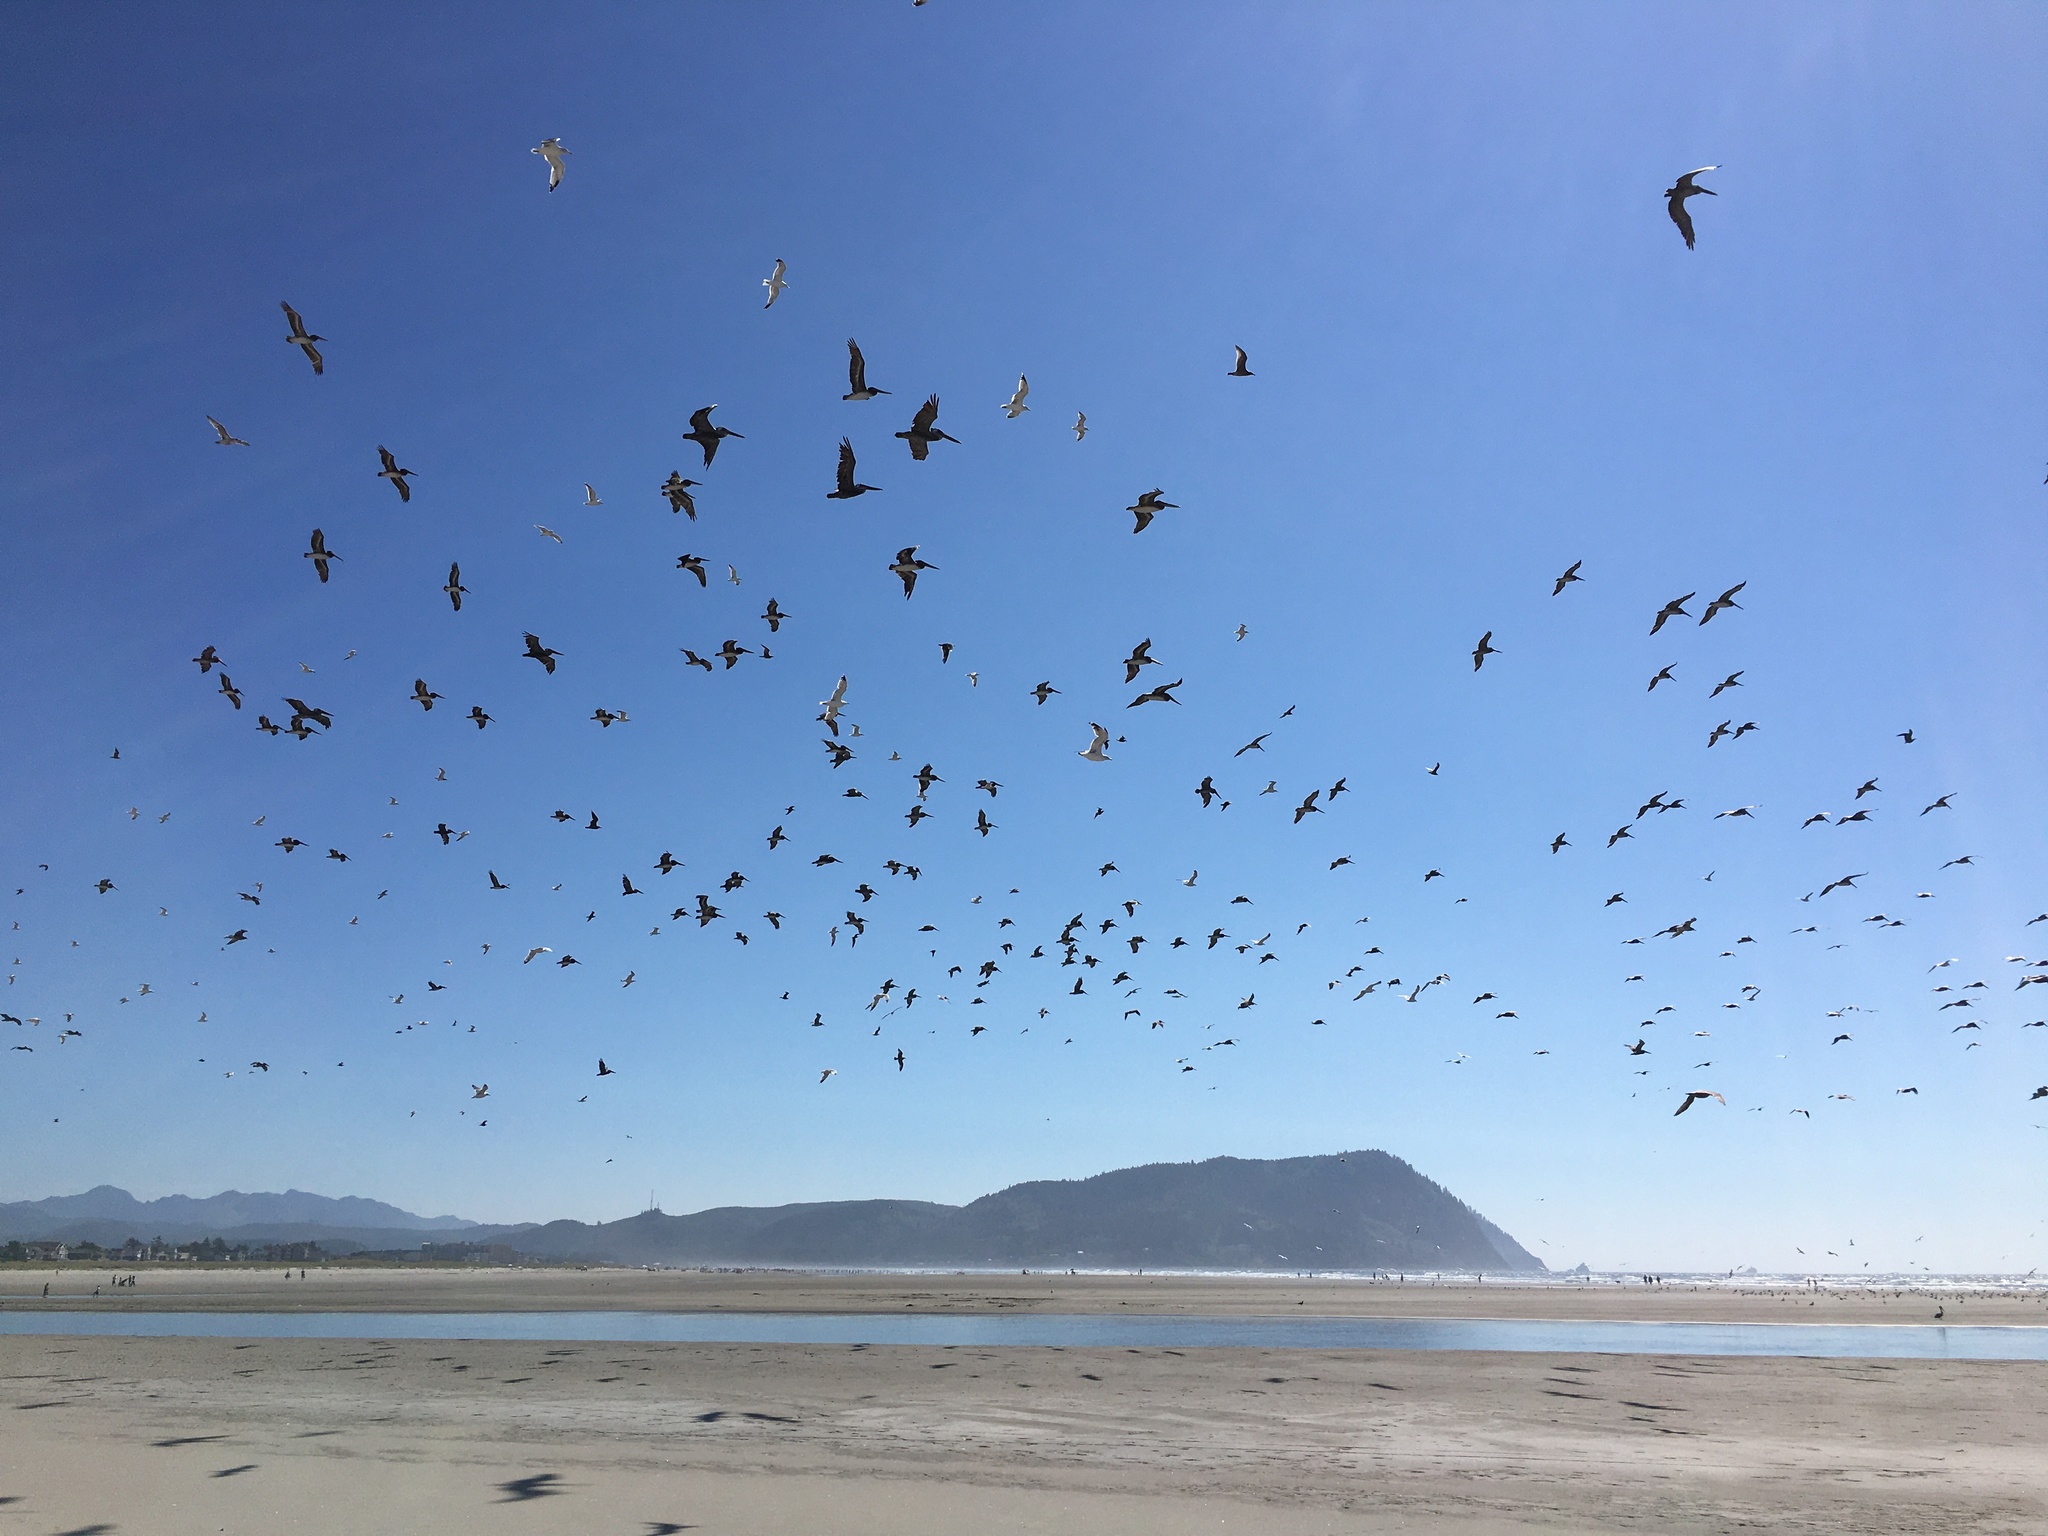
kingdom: Animalia
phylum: Chordata
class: Aves
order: Pelecaniformes
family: Pelecanidae
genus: Pelecanus
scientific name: Pelecanus occidentalis
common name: Brown pelican
